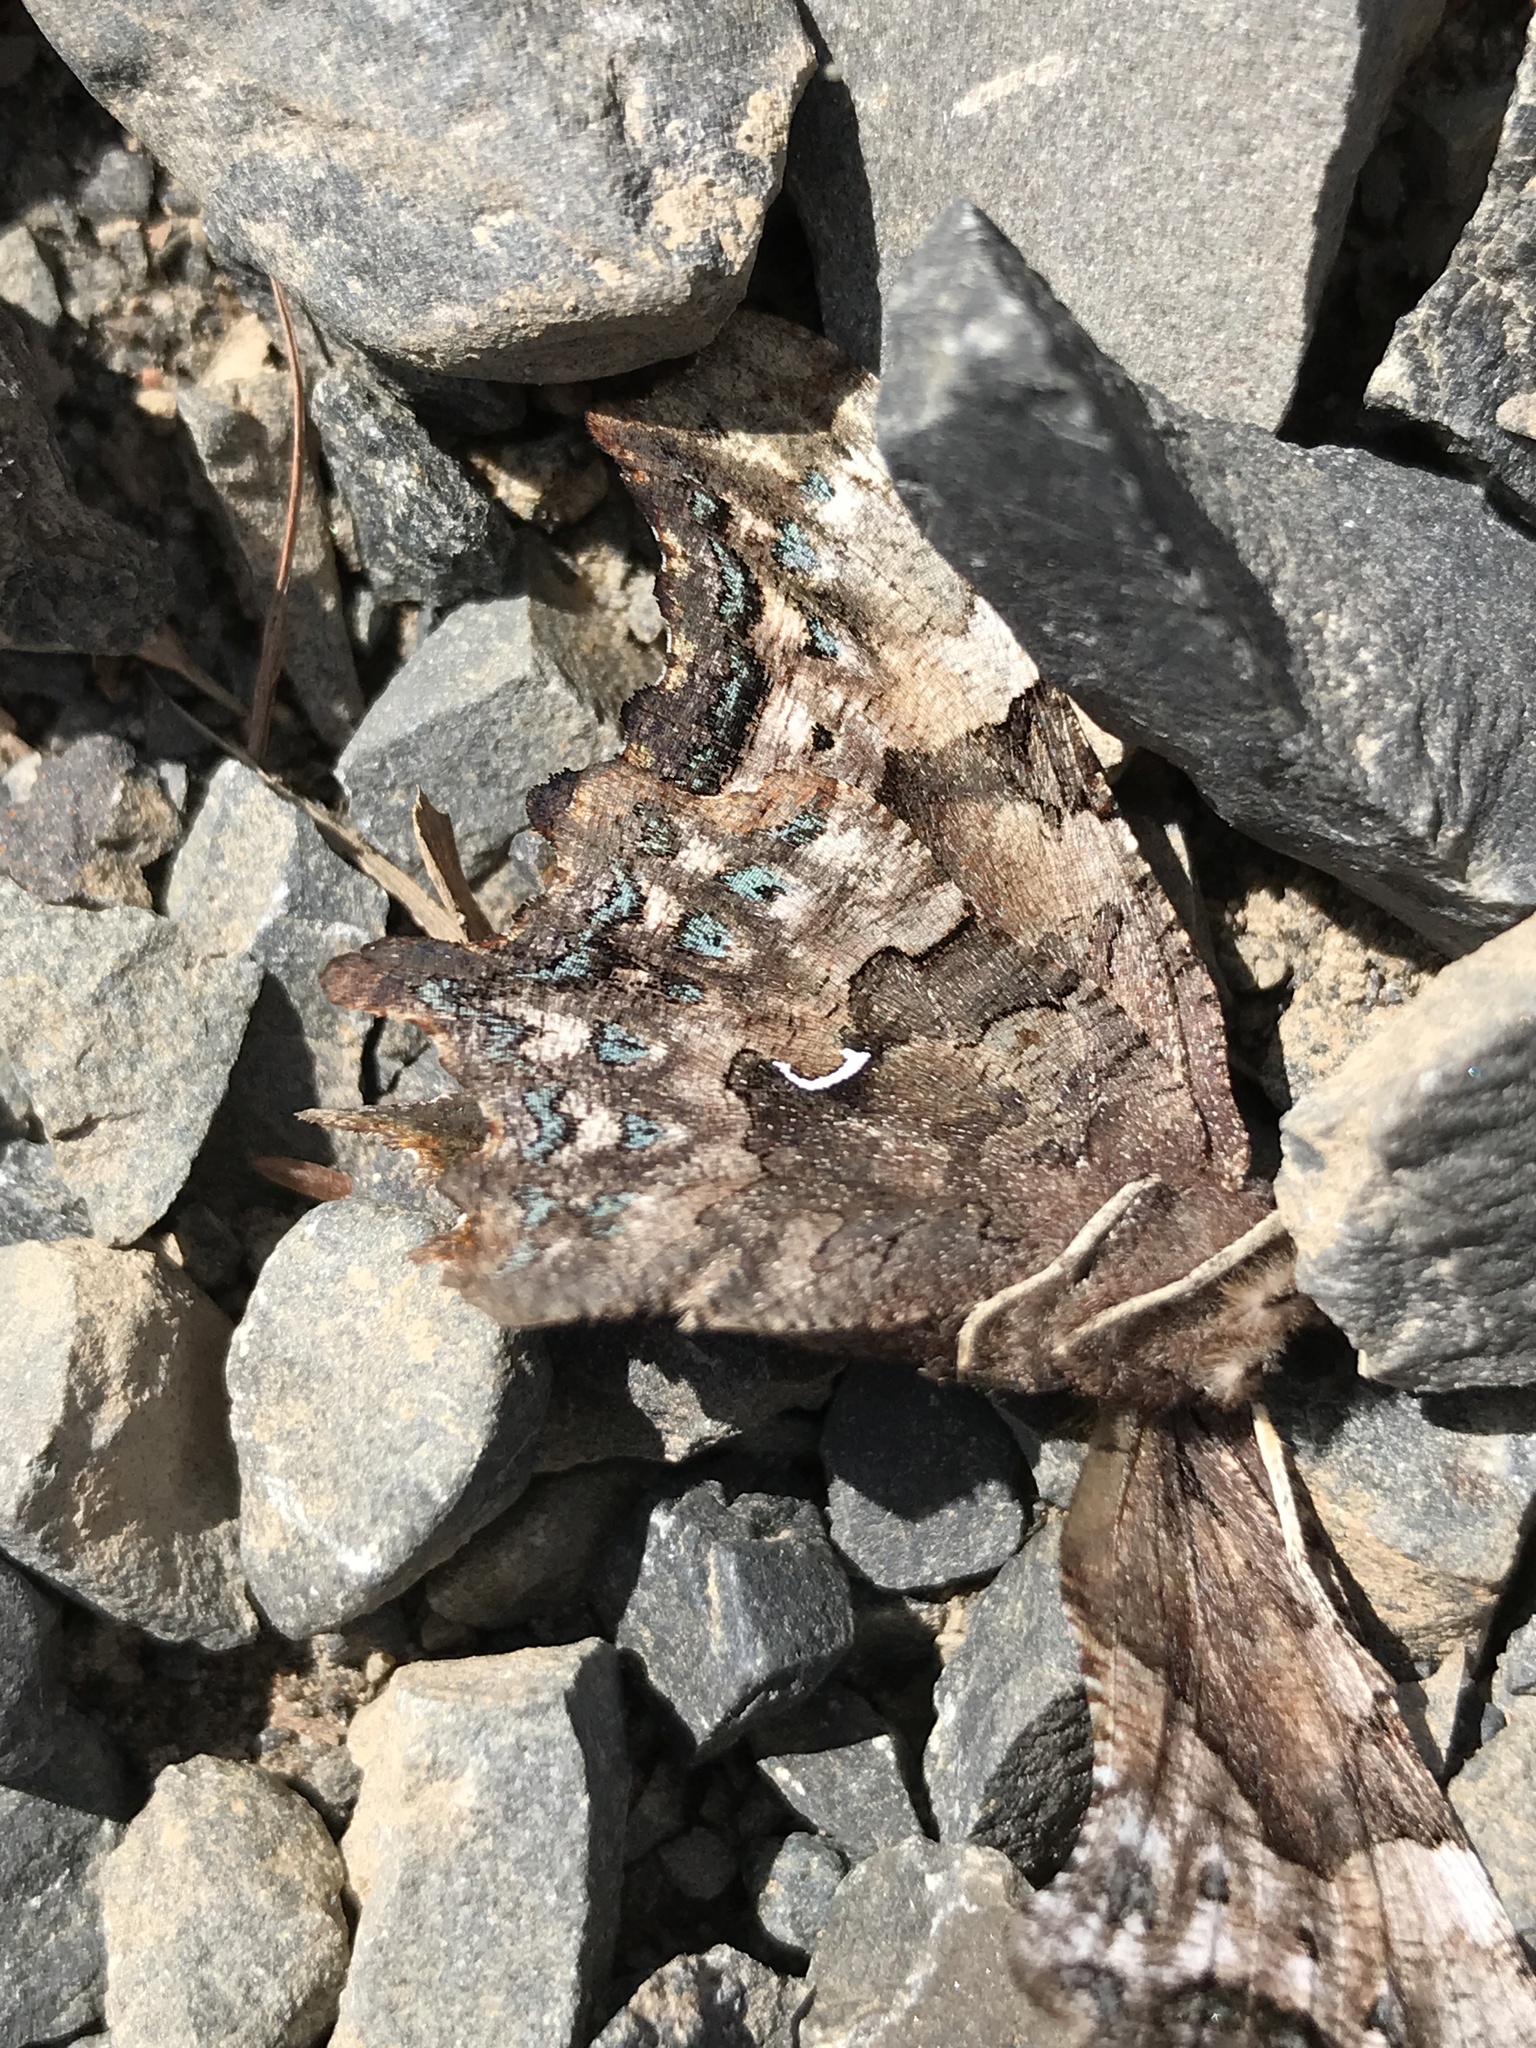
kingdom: Animalia
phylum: Arthropoda
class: Insecta
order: Lepidoptera
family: Nymphalidae
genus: Polygonia
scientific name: Polygonia faunus
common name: Green comma
